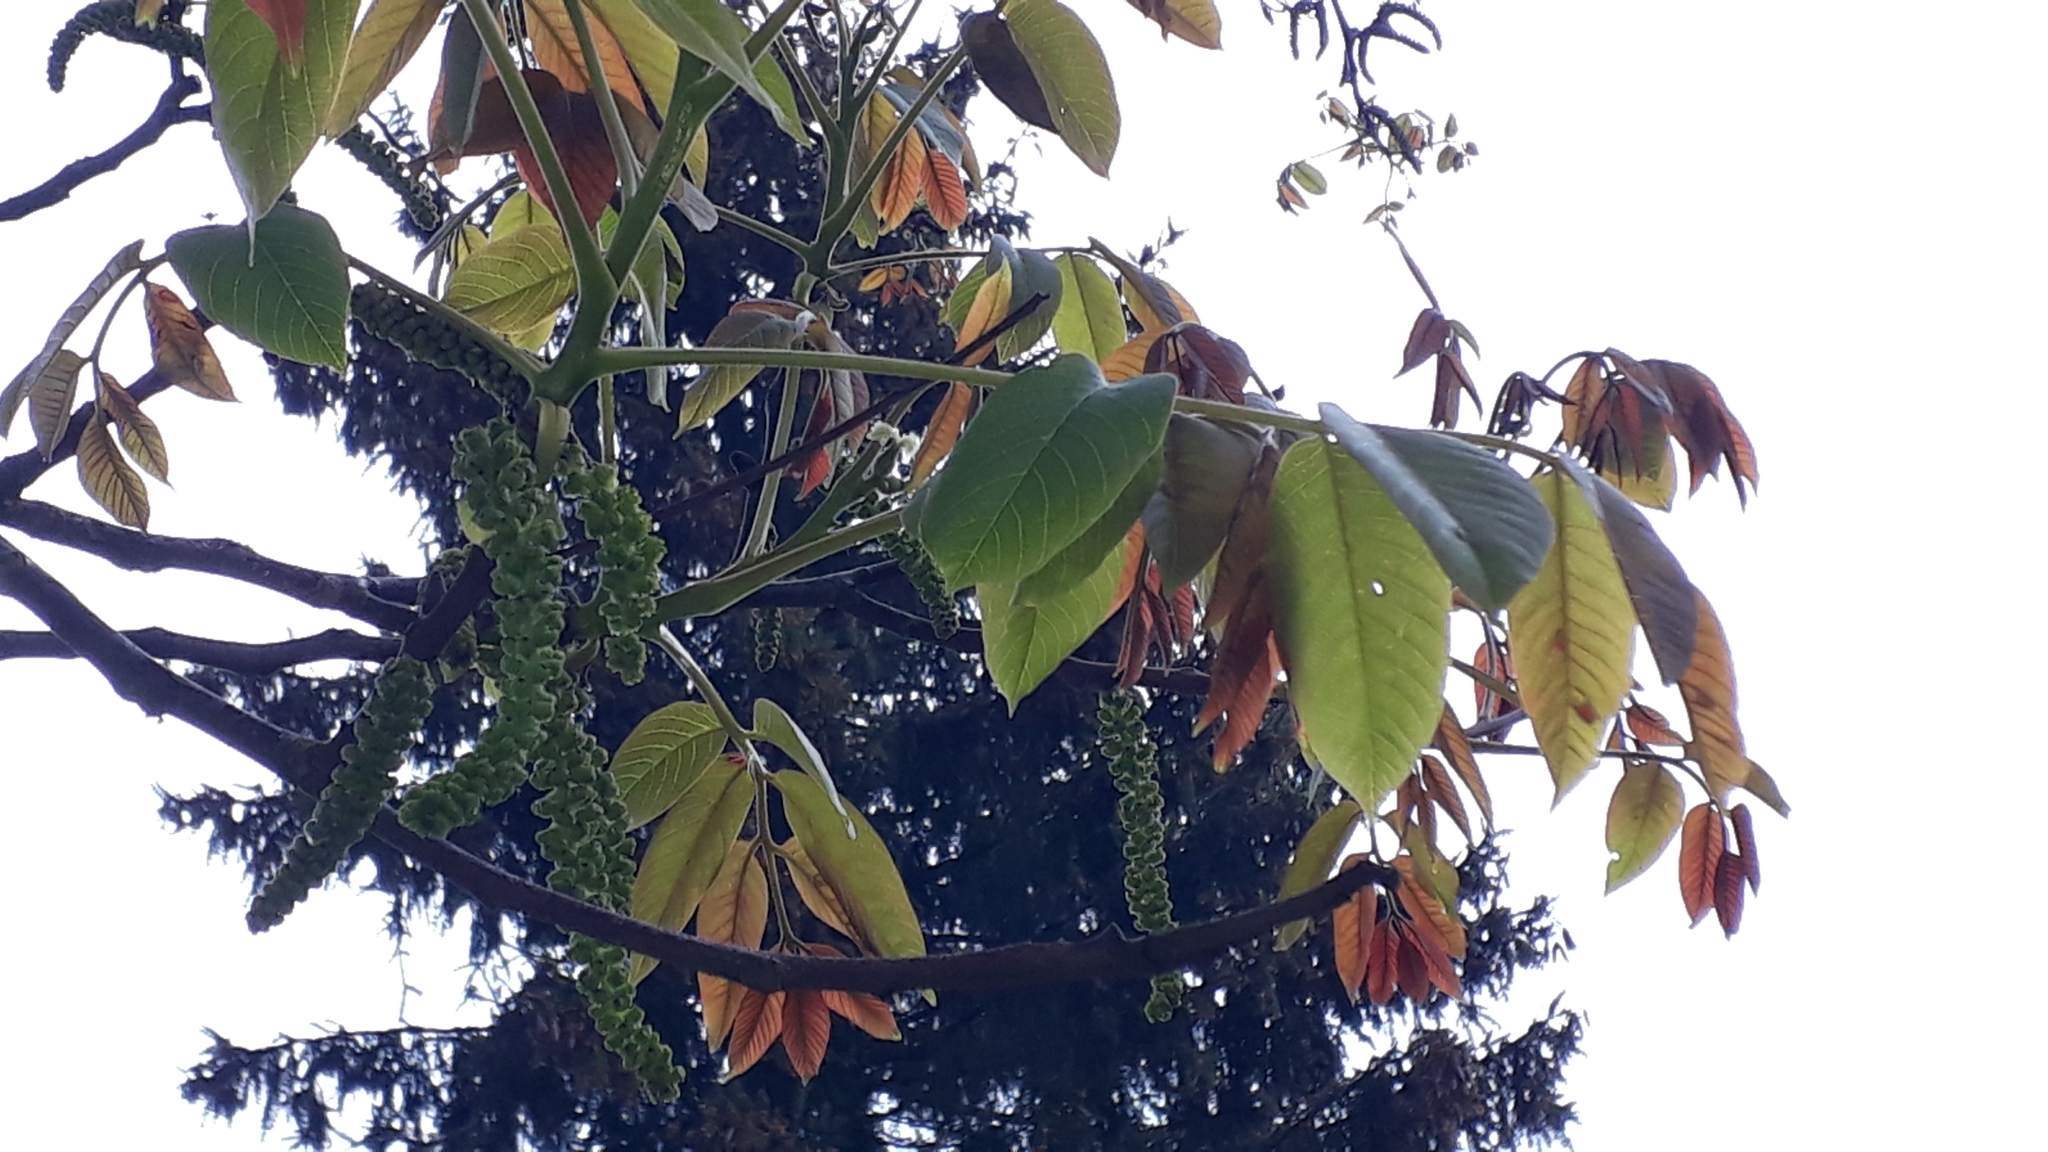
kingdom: Plantae
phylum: Tracheophyta
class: Magnoliopsida
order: Fagales
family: Juglandaceae
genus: Juglans
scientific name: Juglans regia
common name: Walnut
